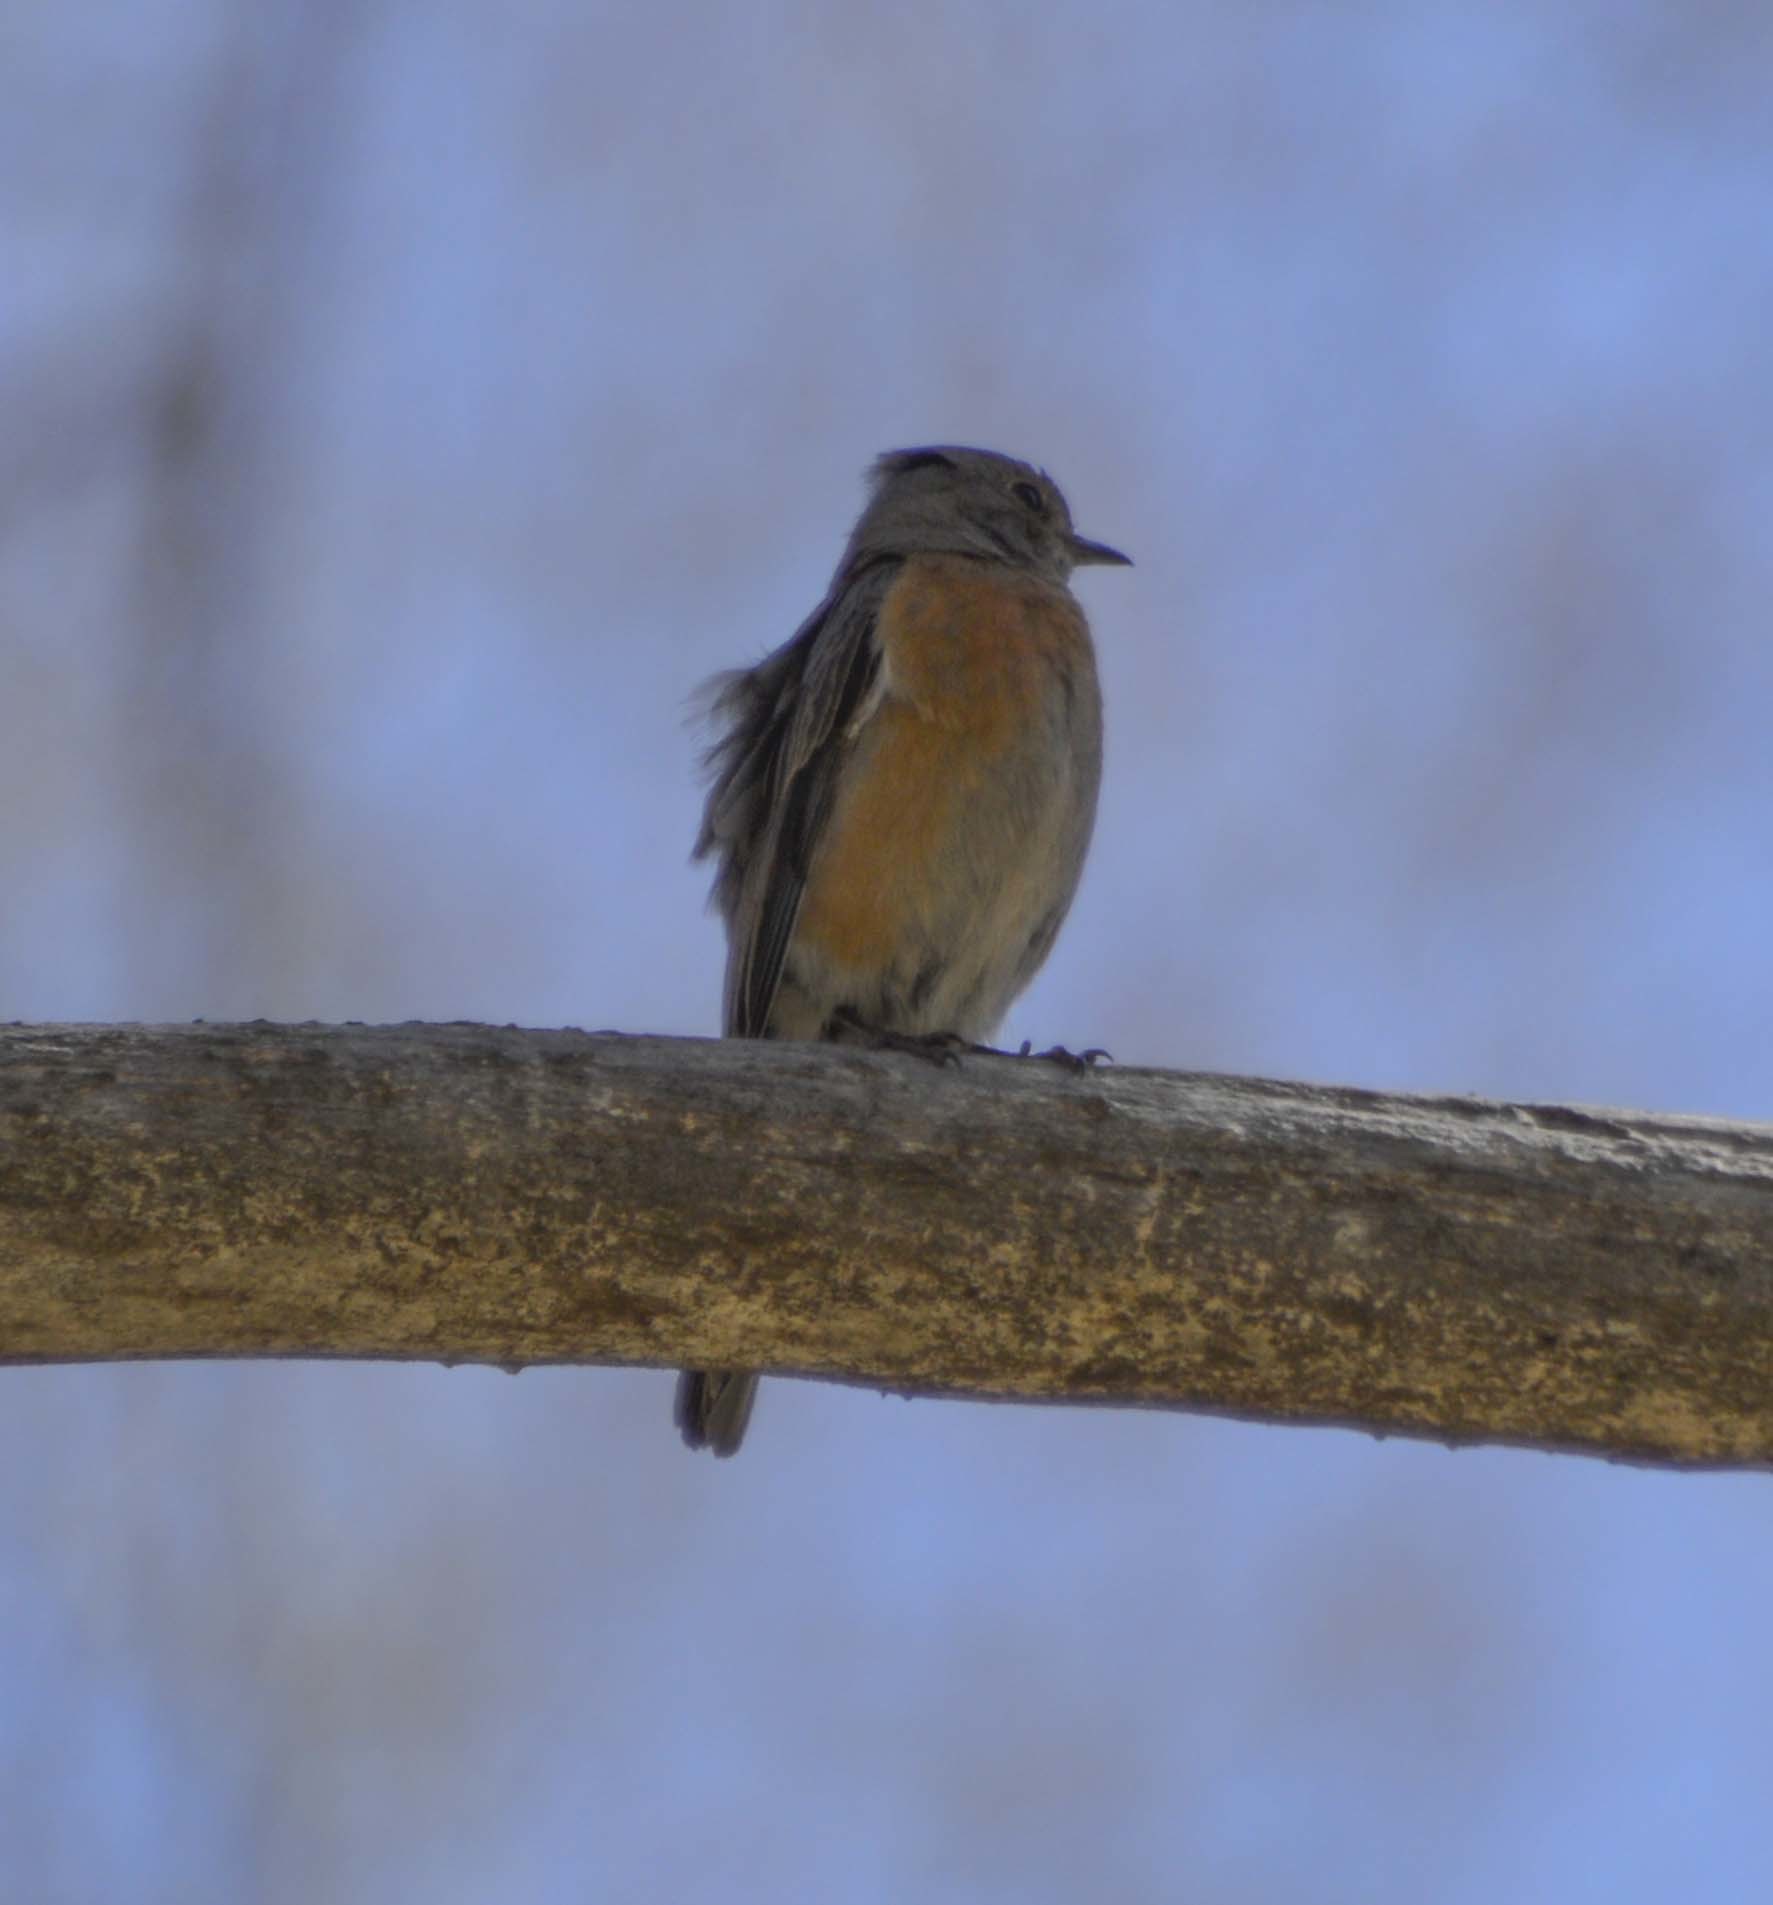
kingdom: Animalia
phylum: Chordata
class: Aves
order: Passeriformes
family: Turdidae
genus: Sialia
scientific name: Sialia mexicana
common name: Western bluebird
